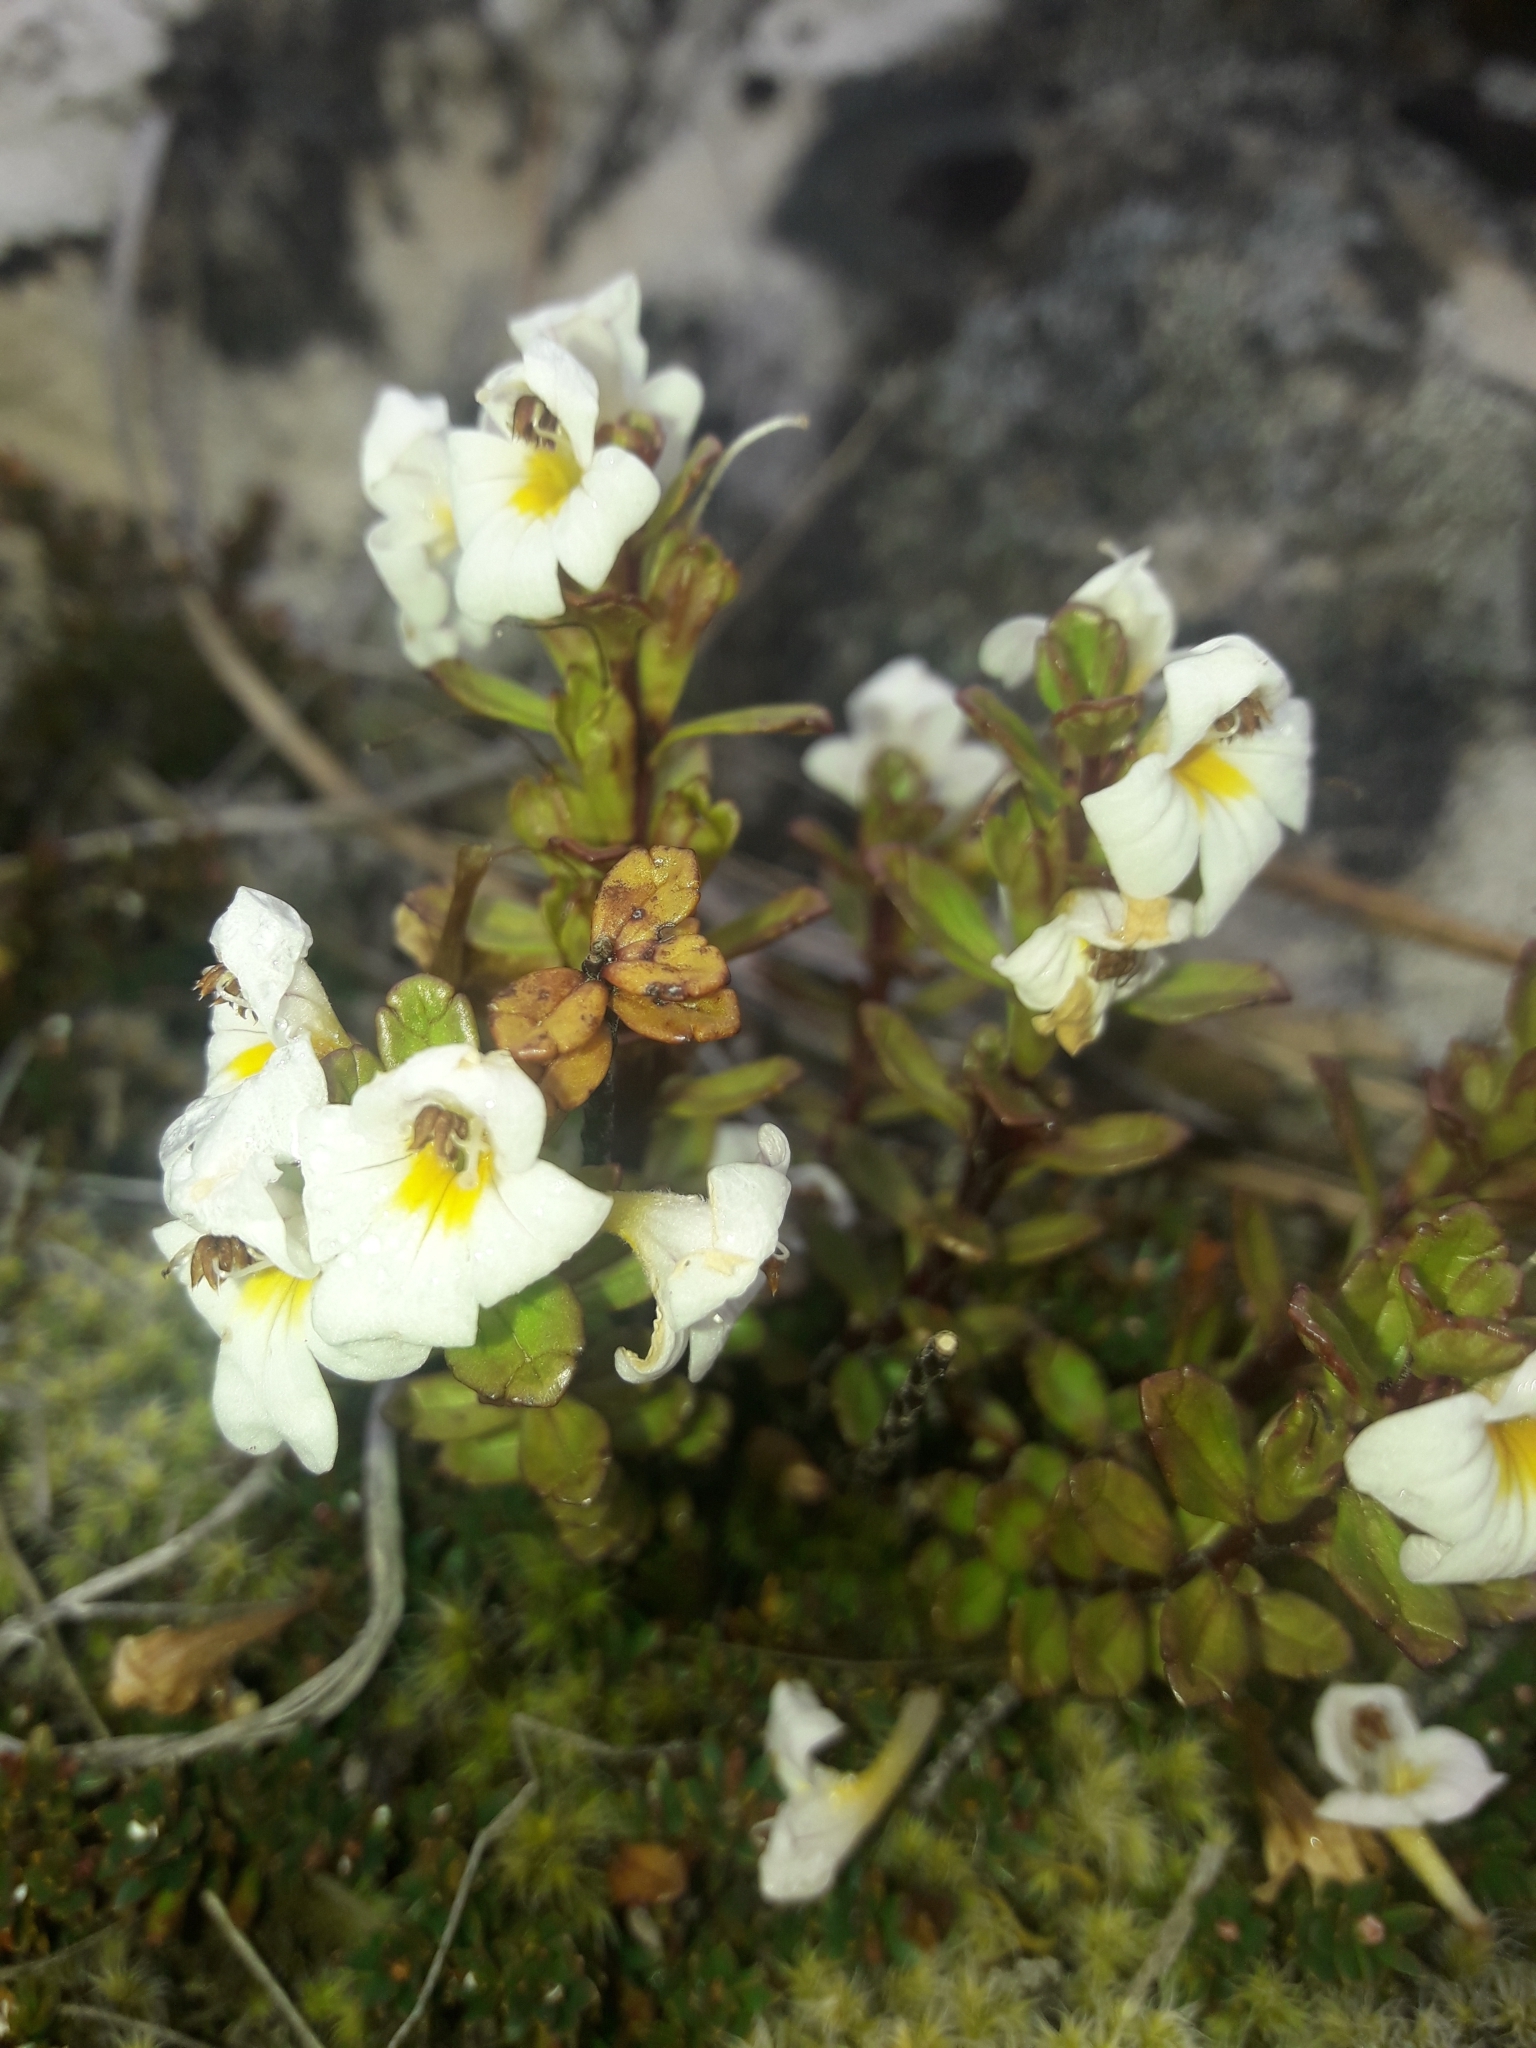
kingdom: Plantae
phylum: Tracheophyta
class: Magnoliopsida
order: Lamiales
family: Orobanchaceae
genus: Euphrasia
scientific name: Euphrasia monroi
